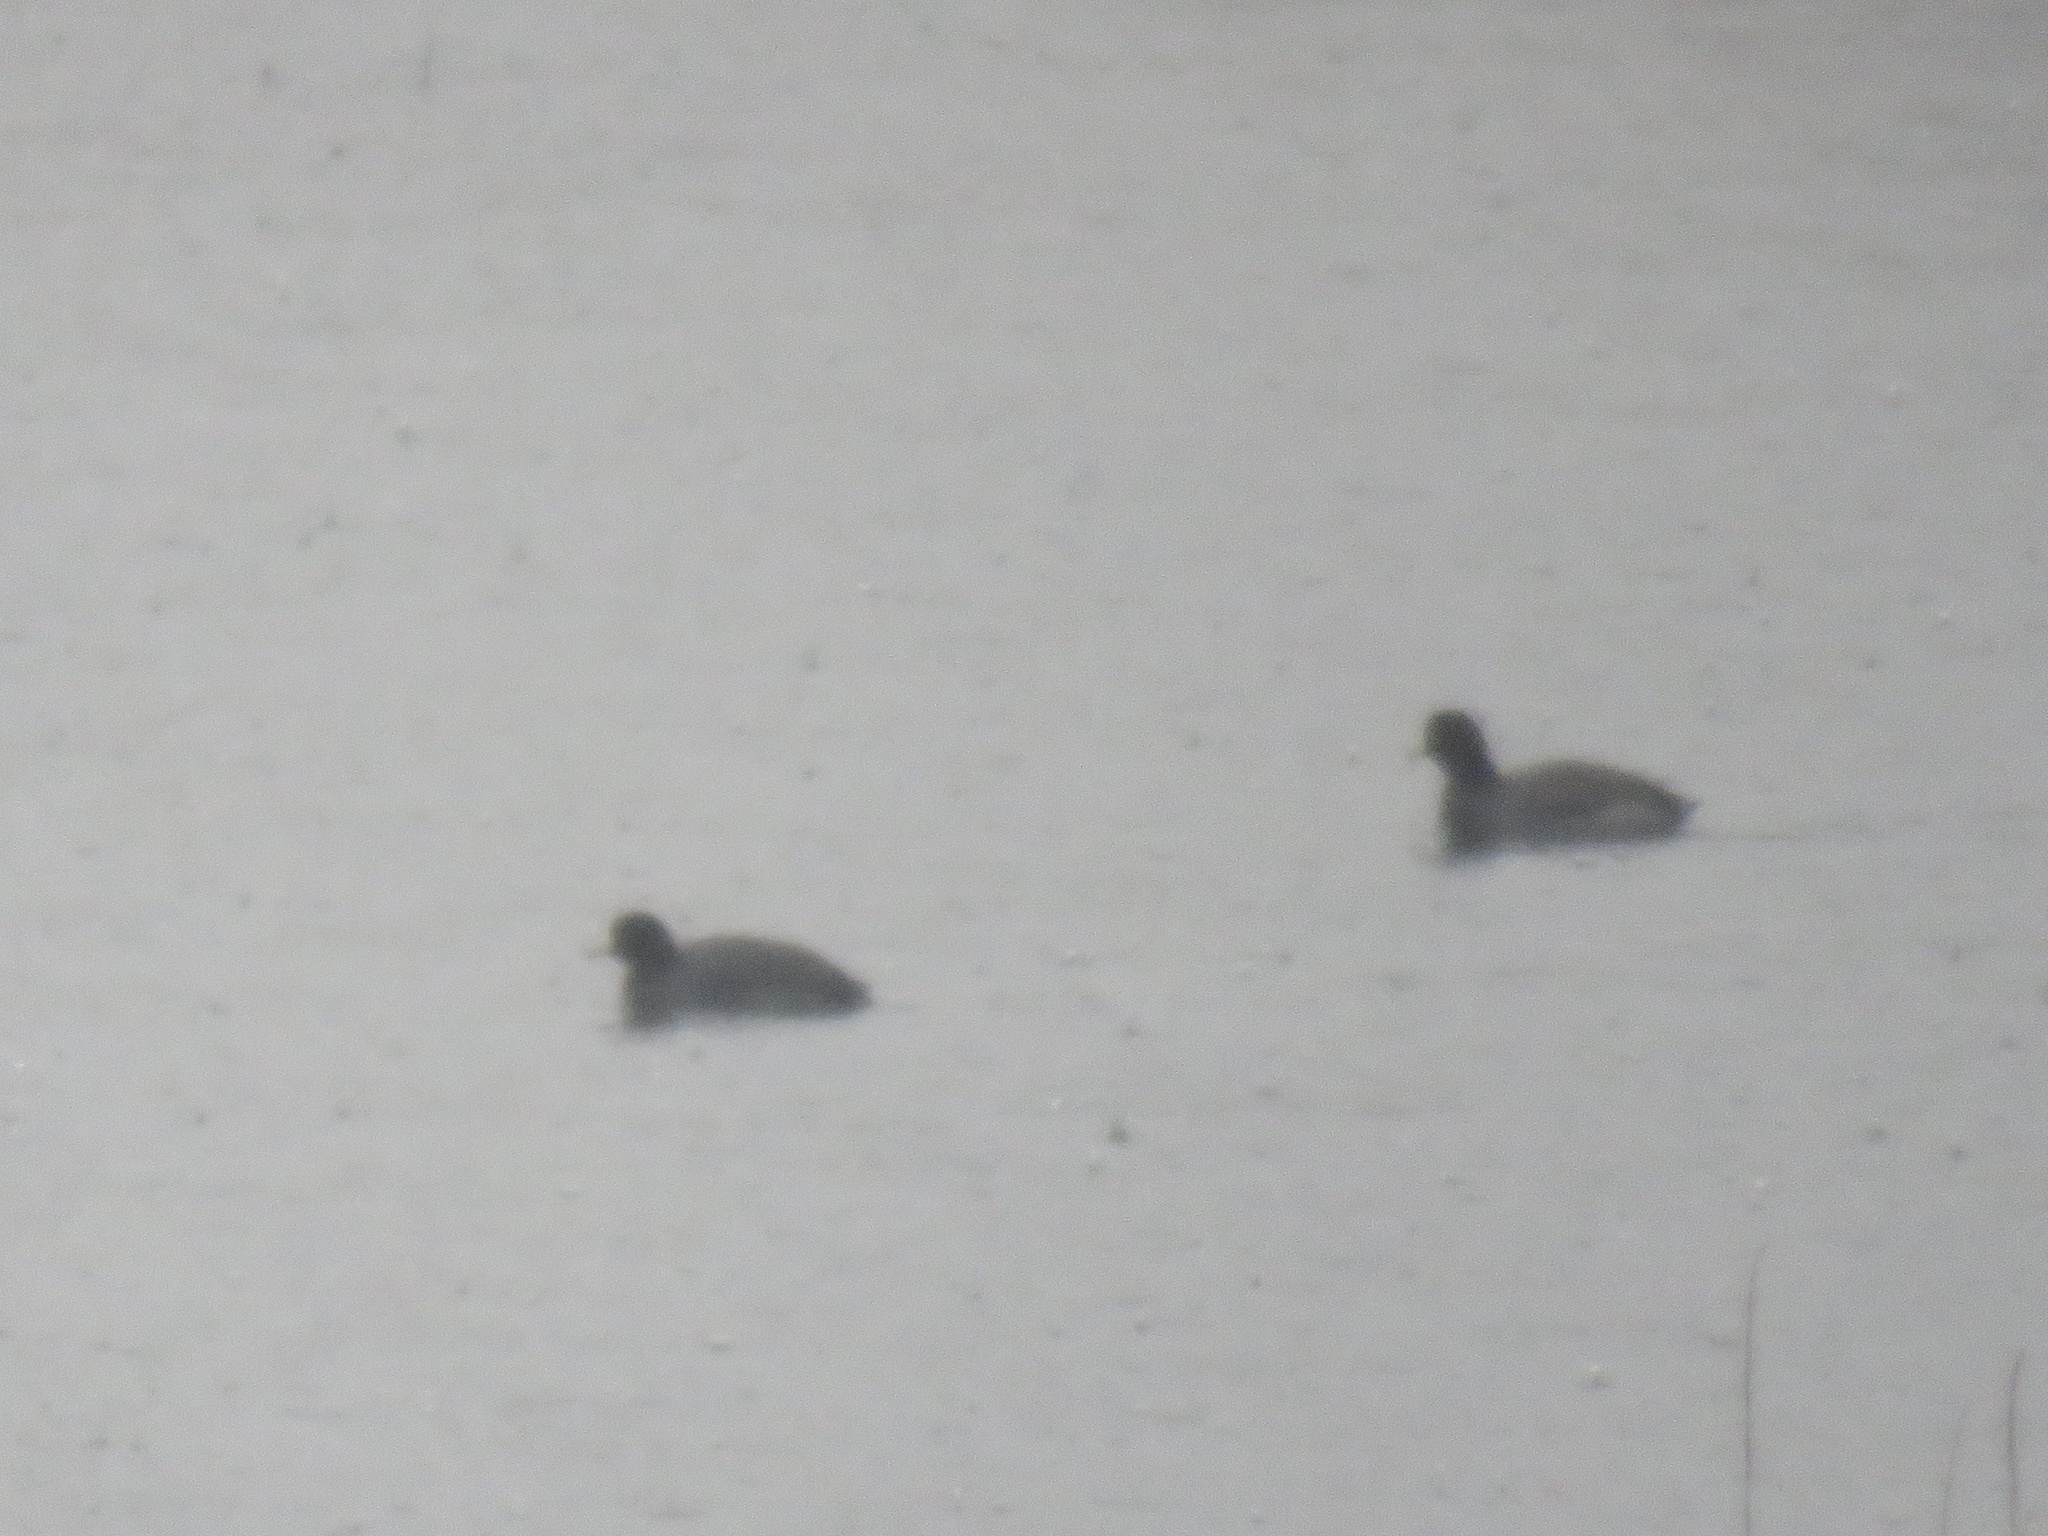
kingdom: Animalia
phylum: Chordata
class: Aves
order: Gruiformes
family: Rallidae
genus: Fulica
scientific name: Fulica americana
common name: American coot
